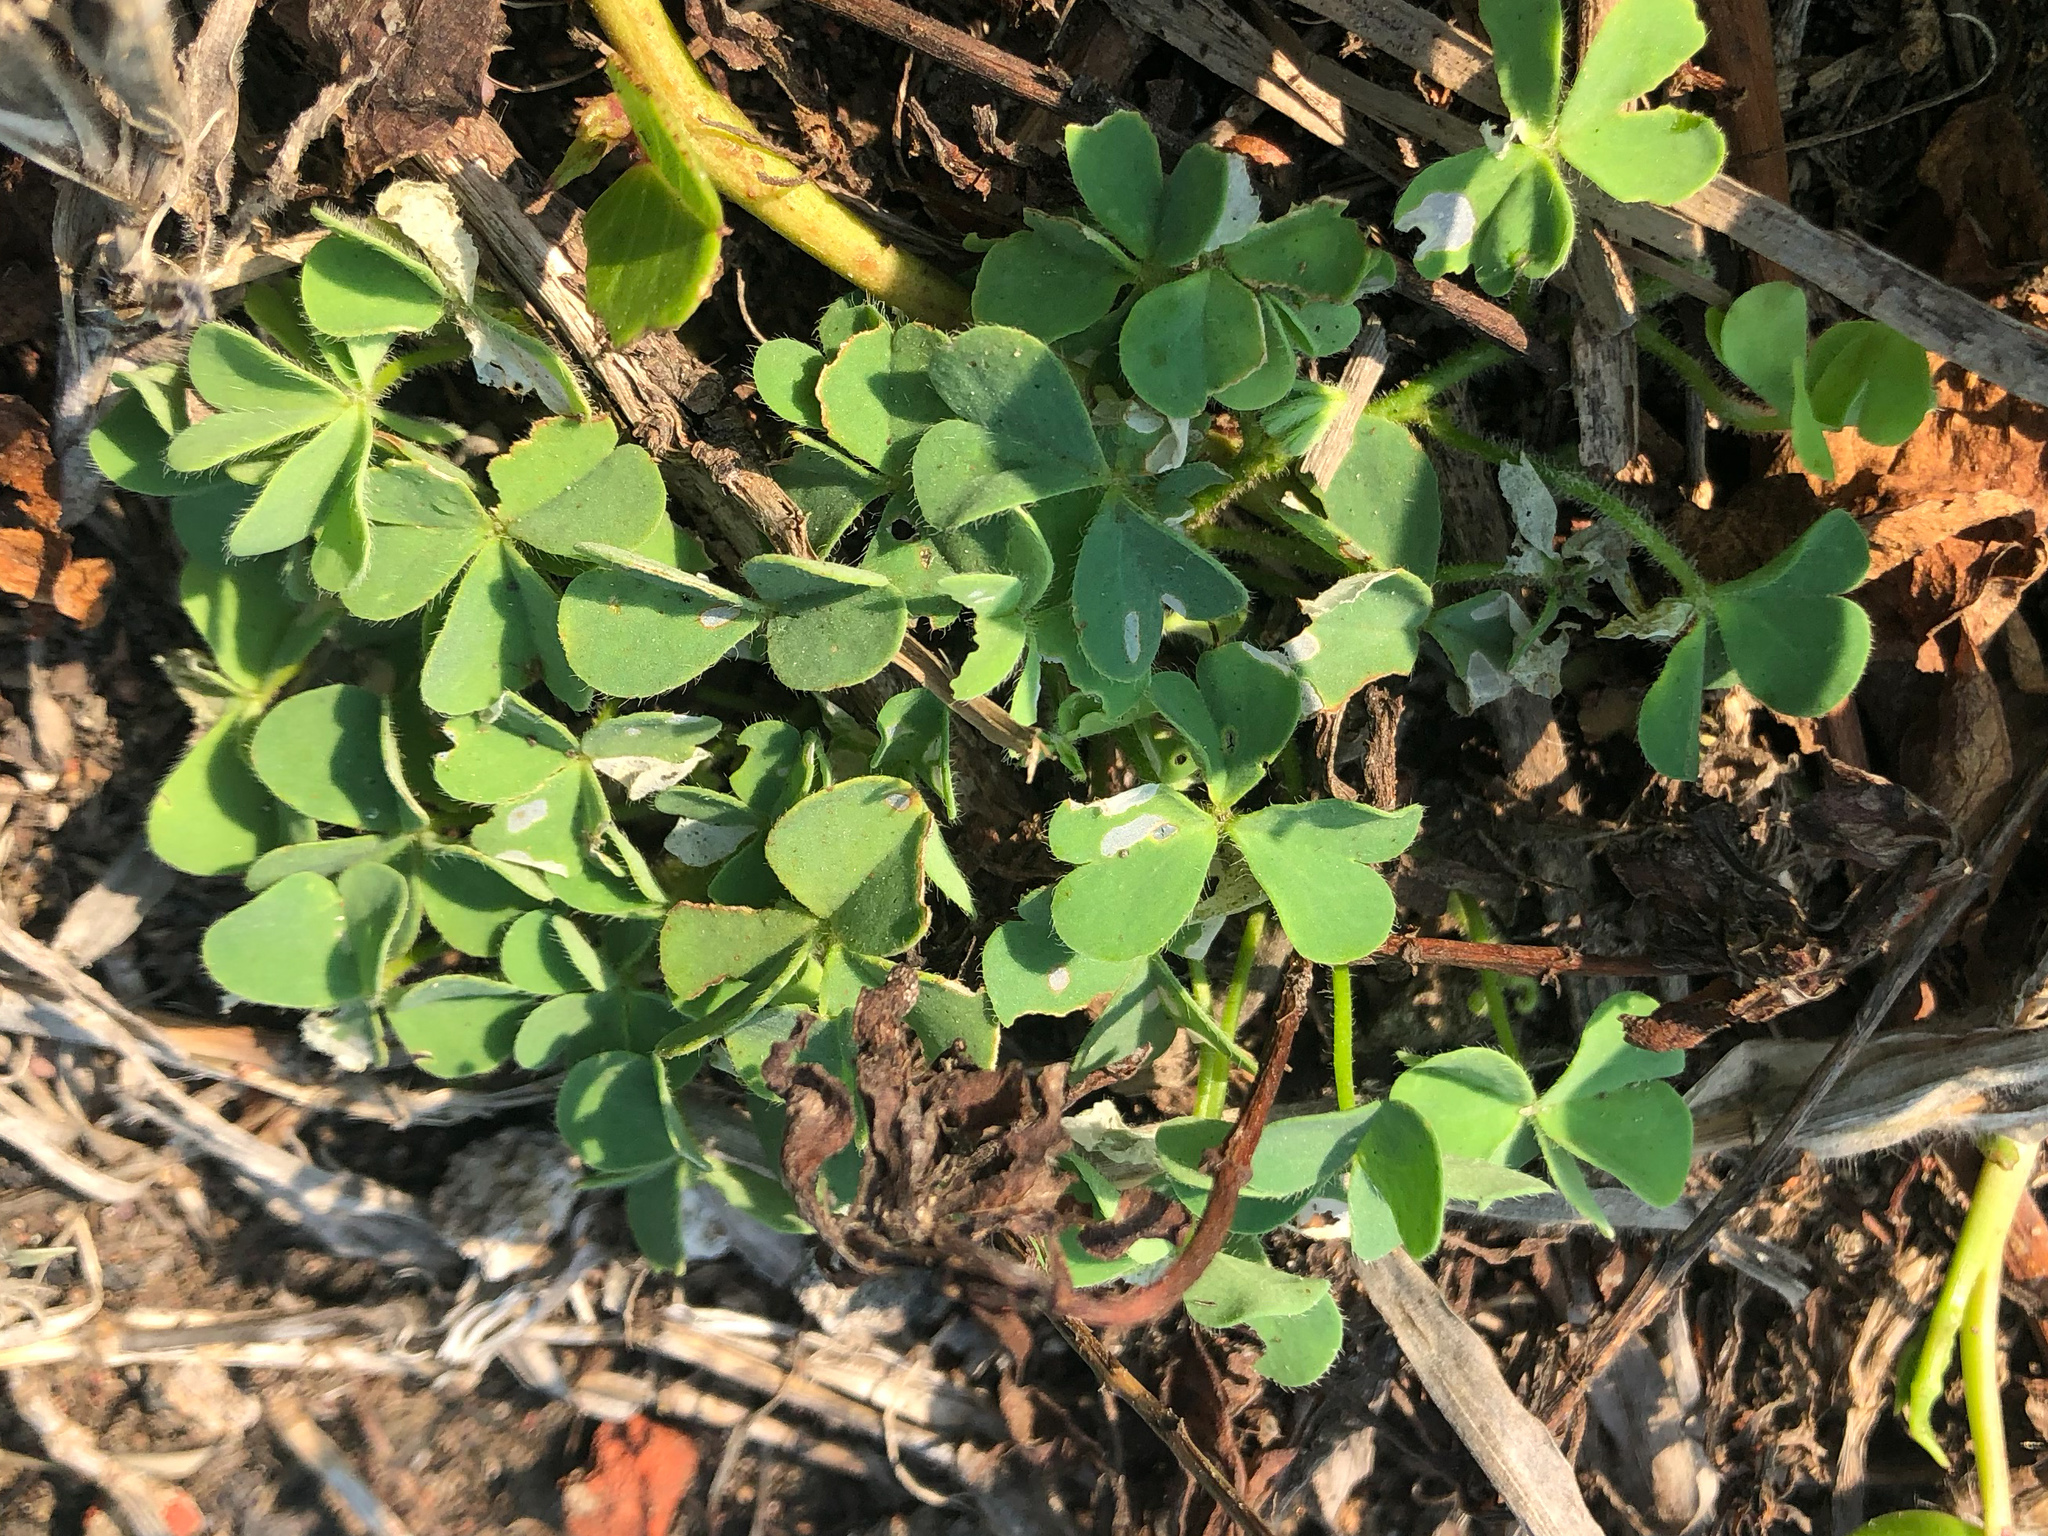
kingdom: Plantae
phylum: Tracheophyta
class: Magnoliopsida
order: Oxalidales
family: Oxalidaceae
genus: Oxalis
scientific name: Oxalis corniculata
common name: Procumbent yellow-sorrel
